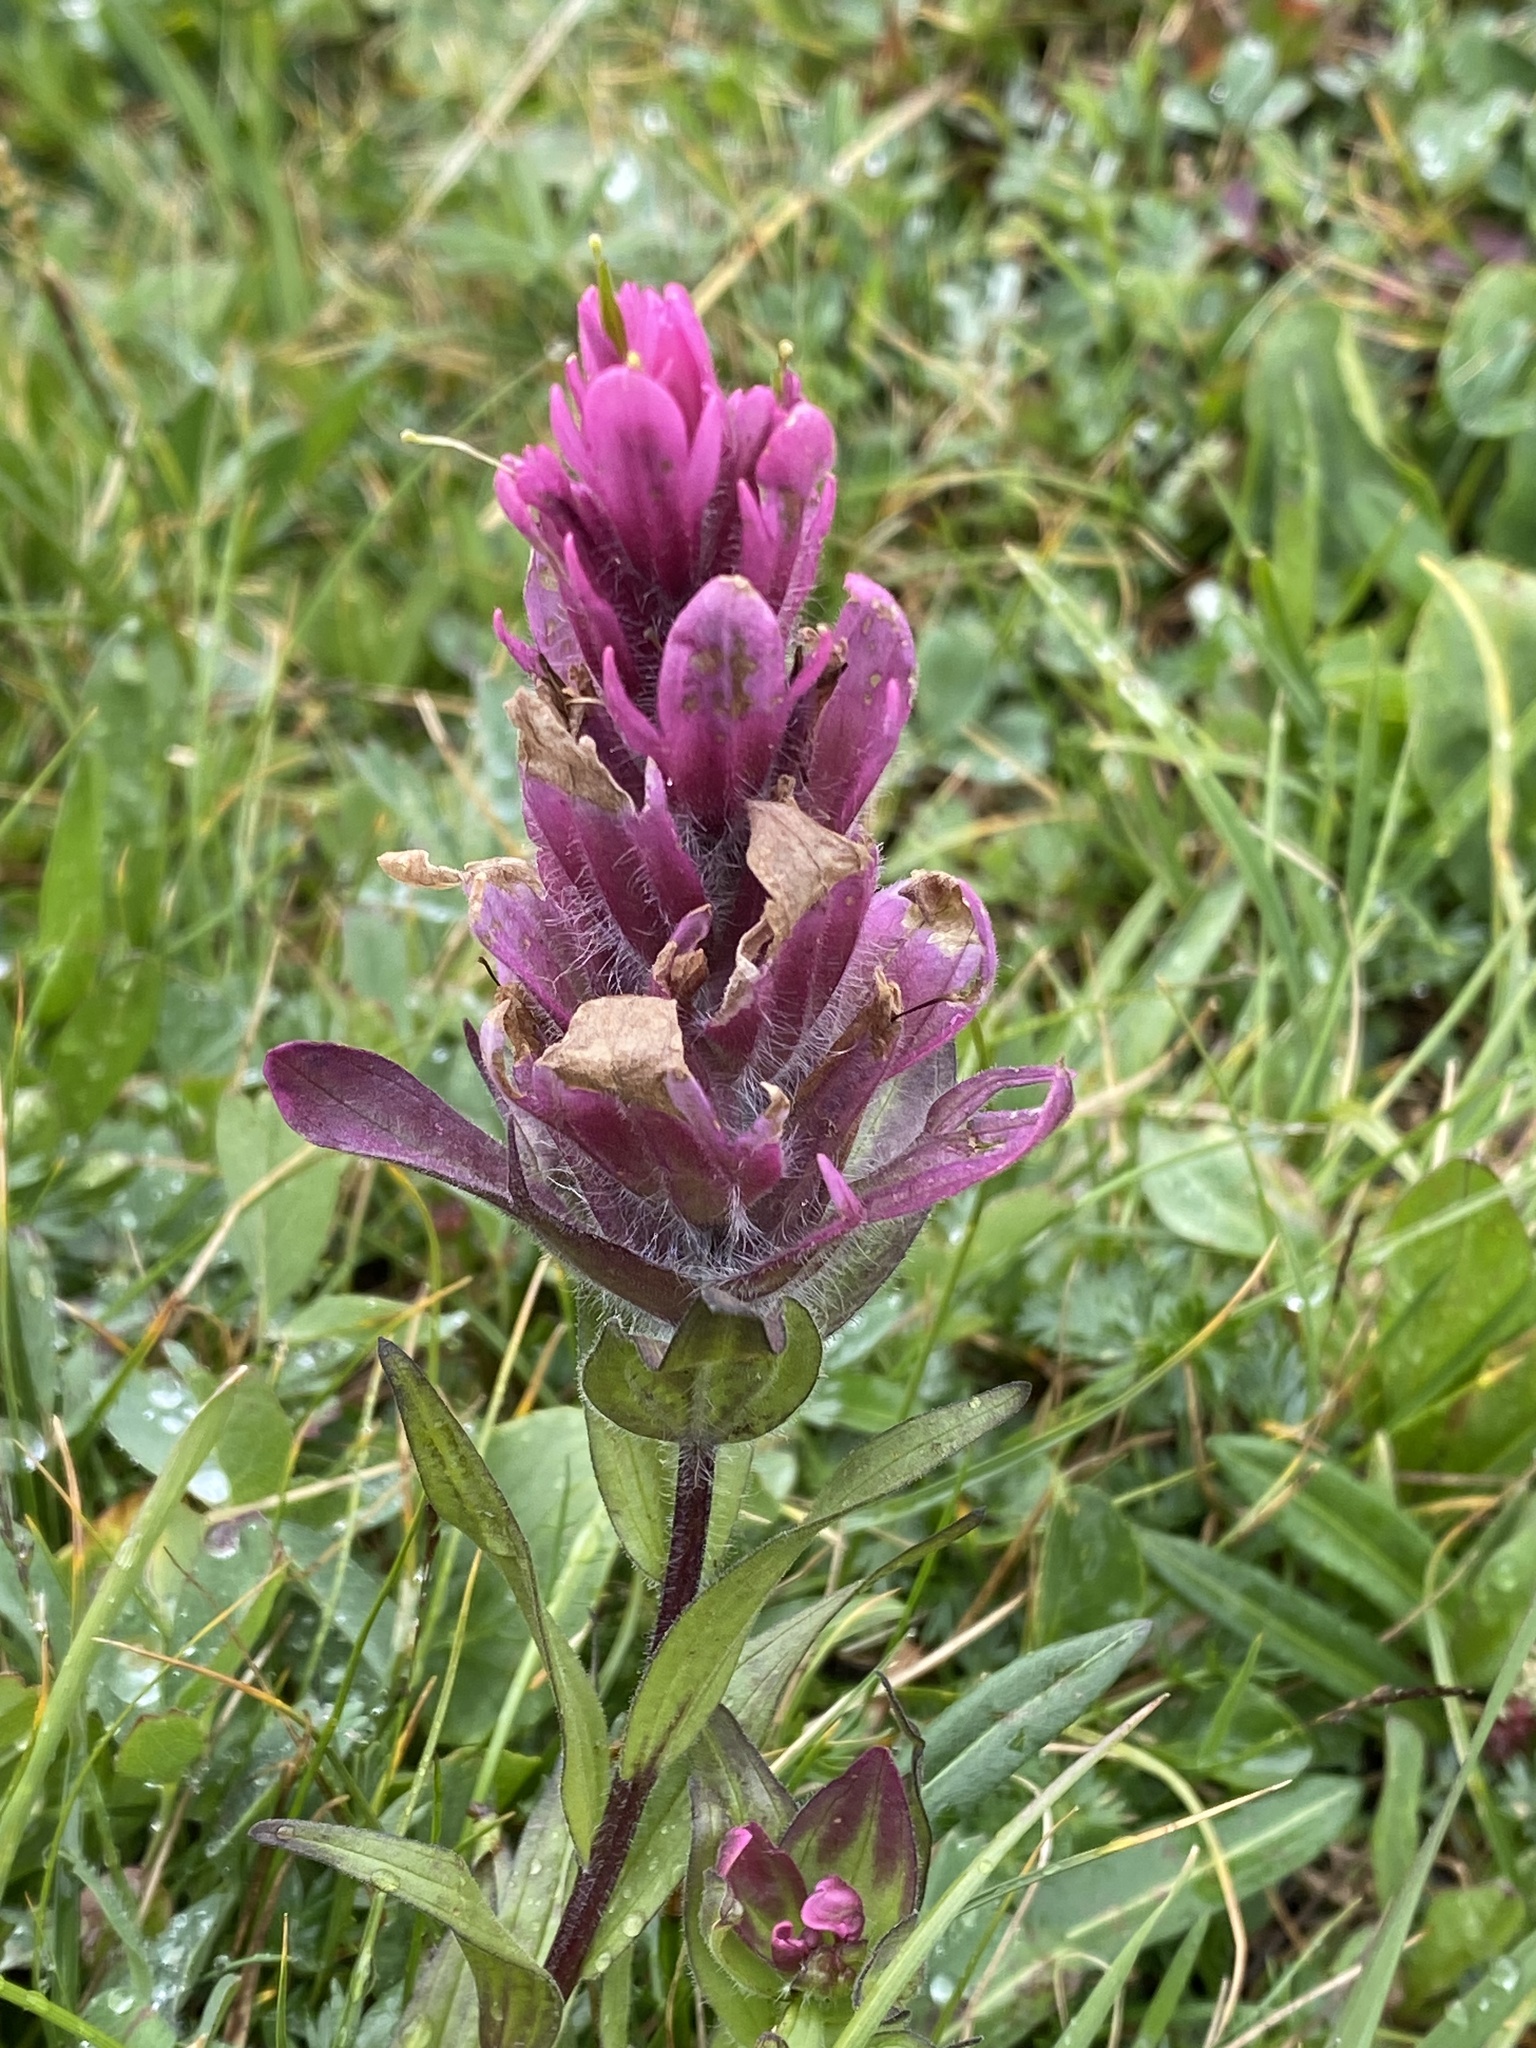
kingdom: Plantae
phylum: Tracheophyta
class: Magnoliopsida
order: Lamiales
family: Orobanchaceae
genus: Castilleja
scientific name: Castilleja rhexifolia
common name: Rocky mountain paintbrush
